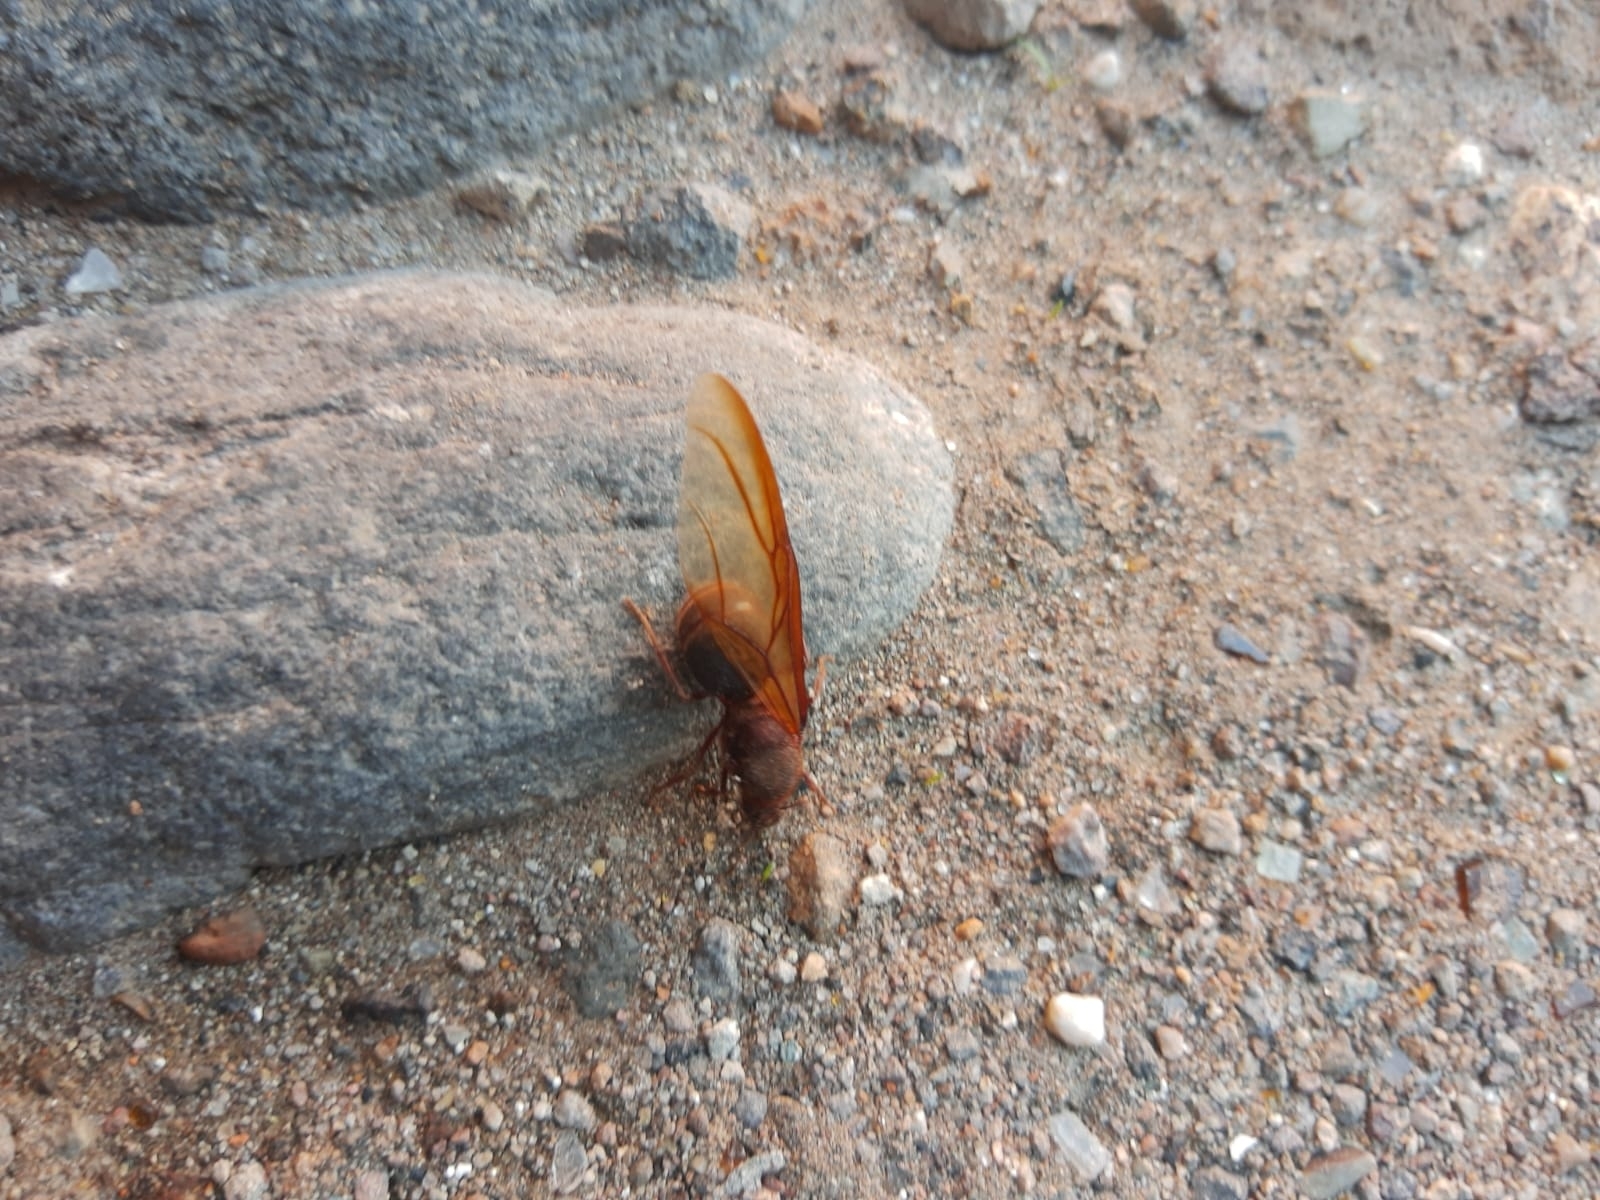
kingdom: Animalia
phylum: Arthropoda
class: Insecta
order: Hymenoptera
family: Formicidae
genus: Atta
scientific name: Atta mexicana
